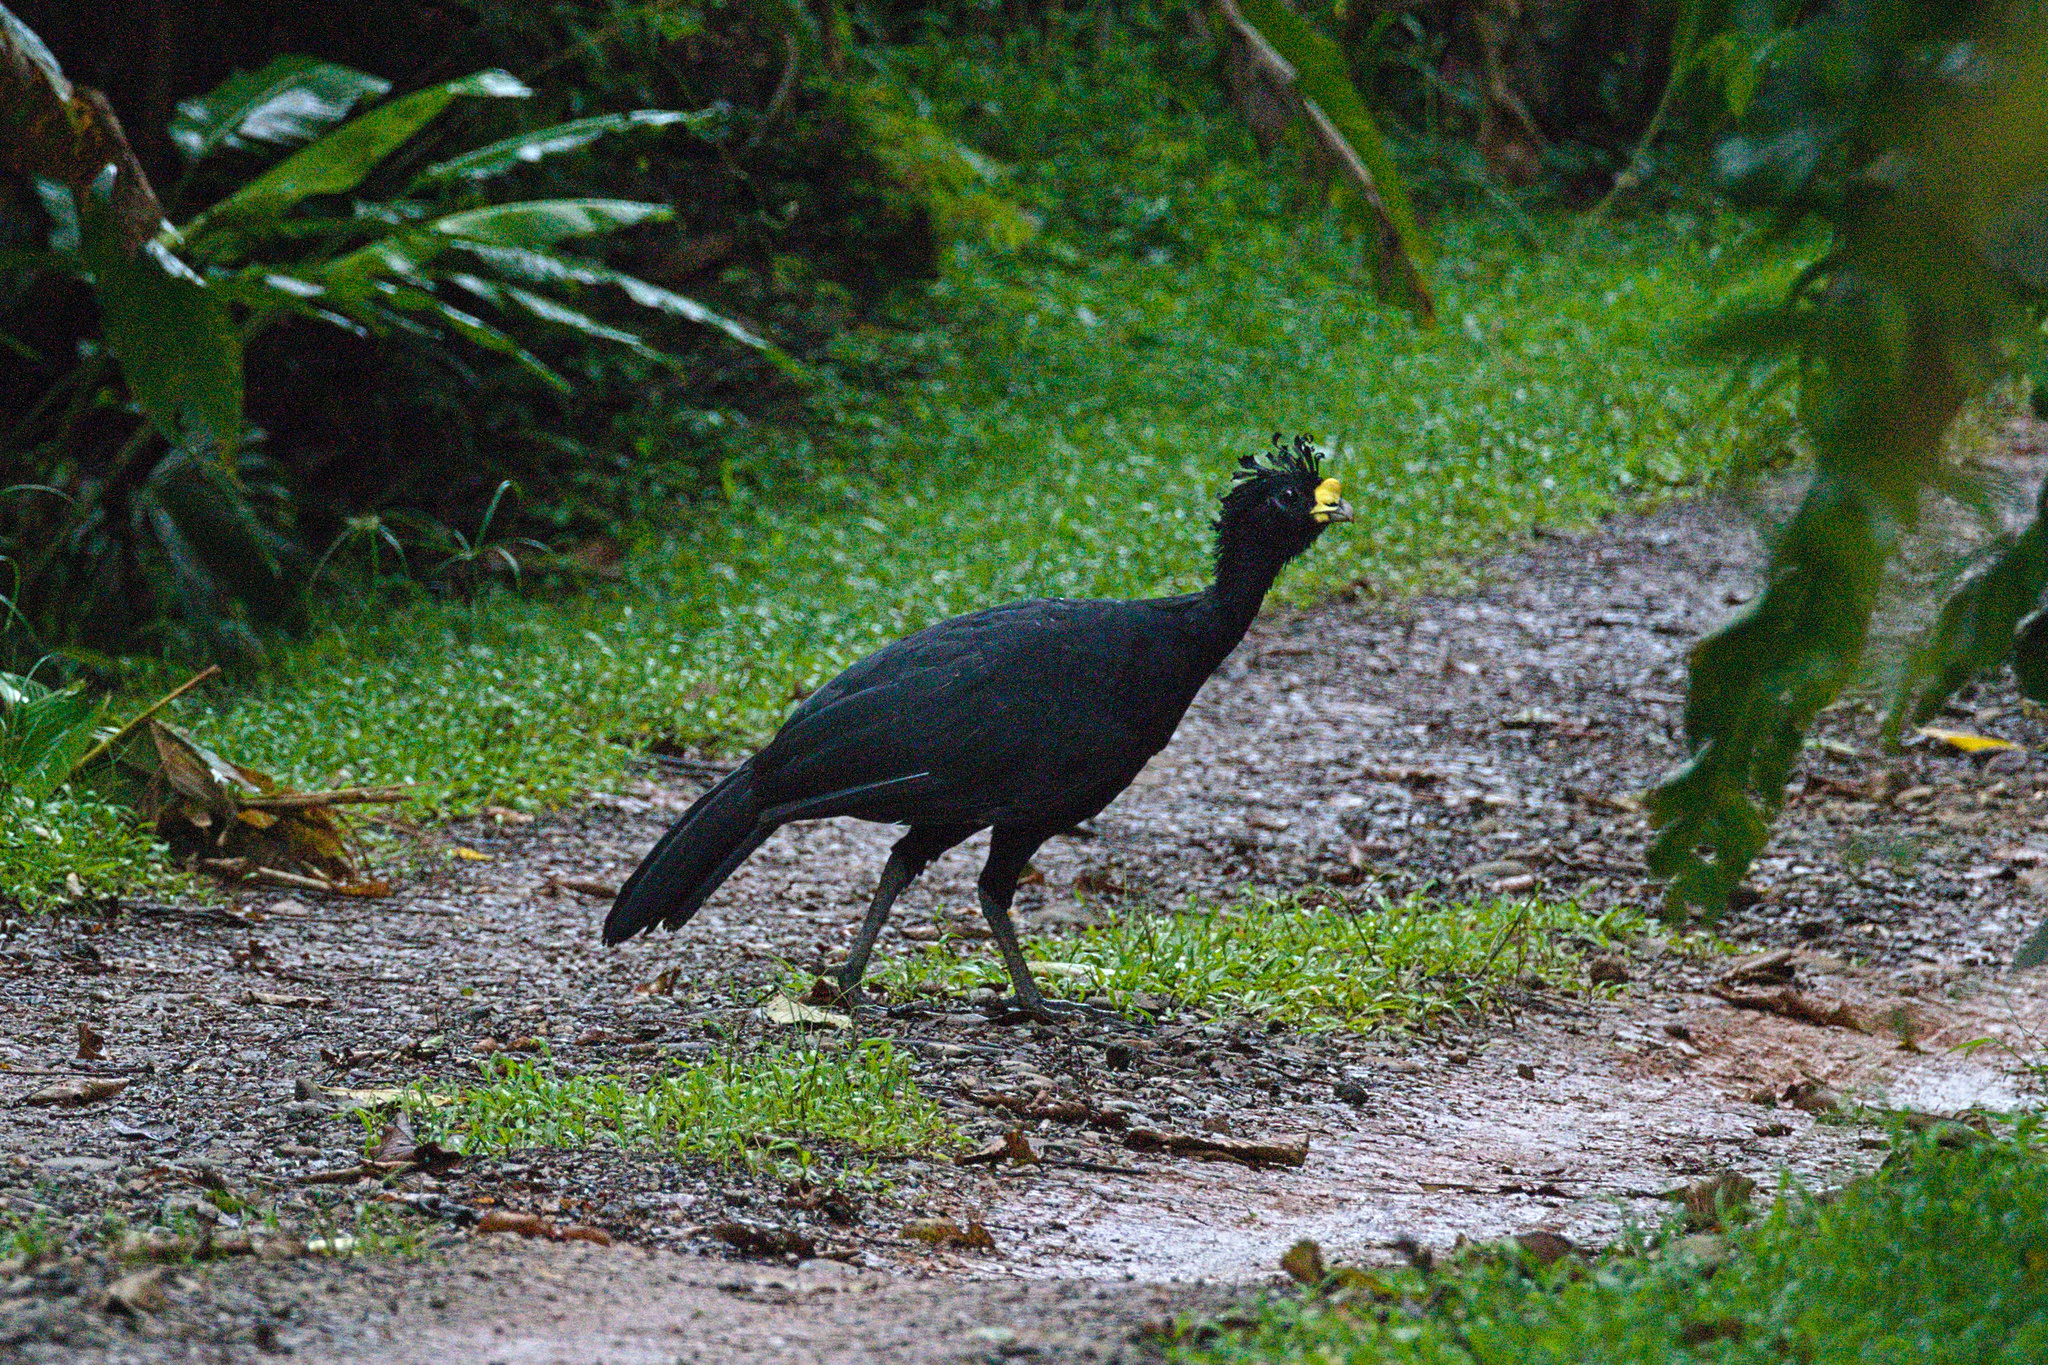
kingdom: Animalia
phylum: Chordata
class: Aves
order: Galliformes
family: Cracidae
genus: Crax
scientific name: Crax rubra
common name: Great curassow
